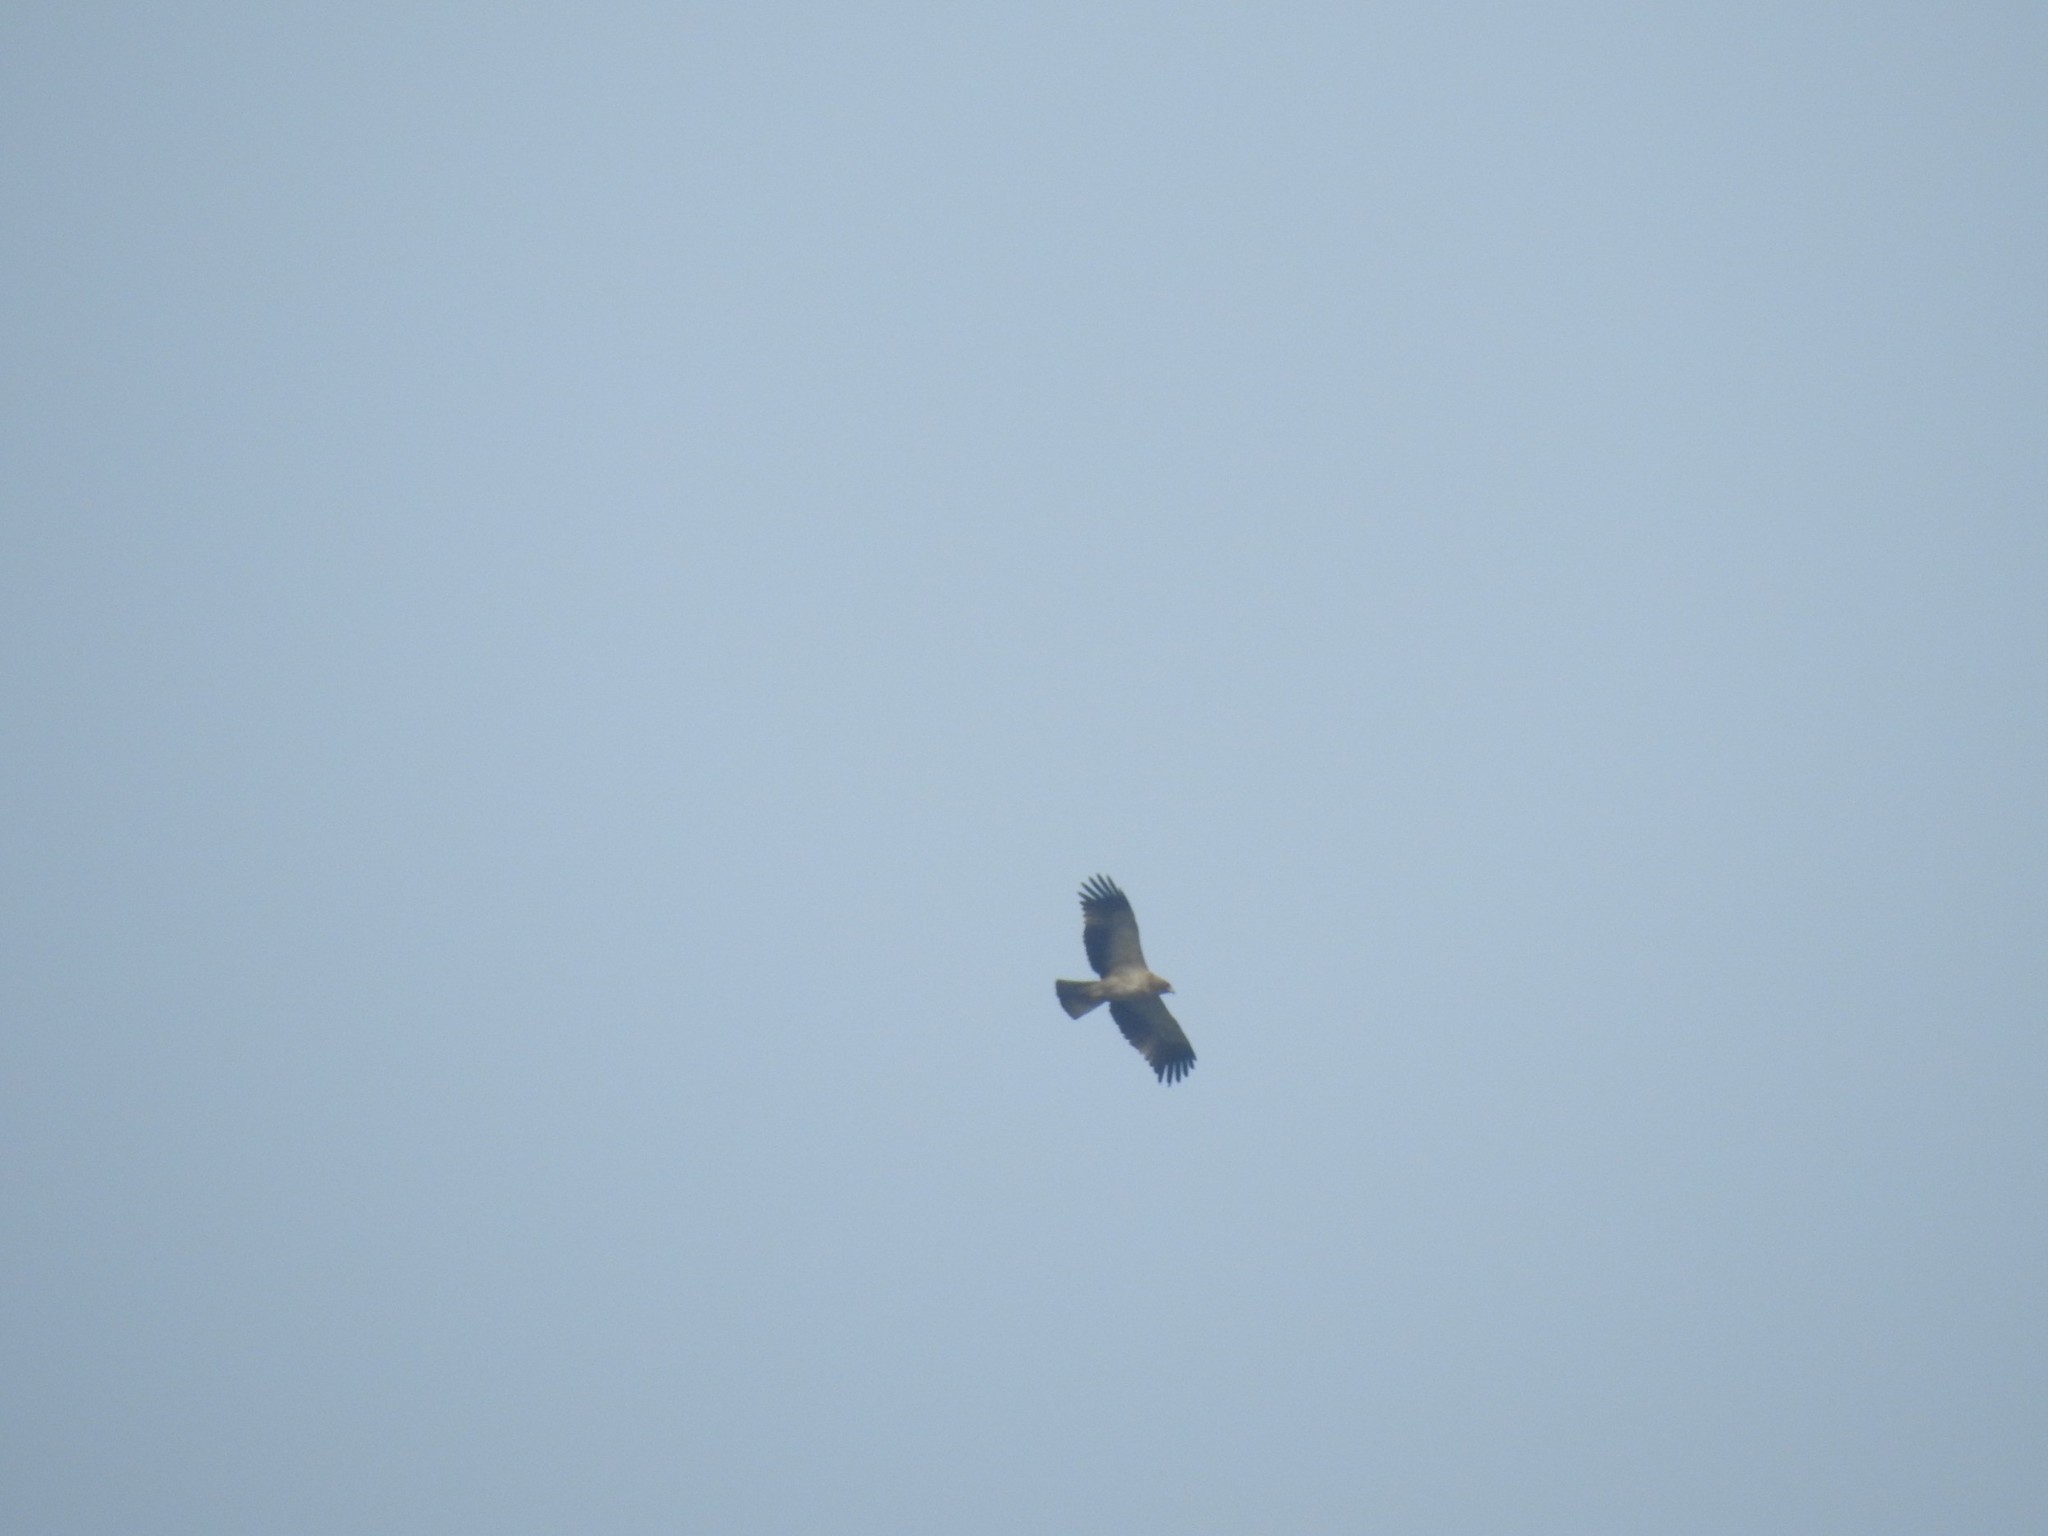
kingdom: Animalia
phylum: Chordata
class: Aves
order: Accipitriformes
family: Accipitridae
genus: Hieraaetus
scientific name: Hieraaetus pennatus
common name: Booted eagle
